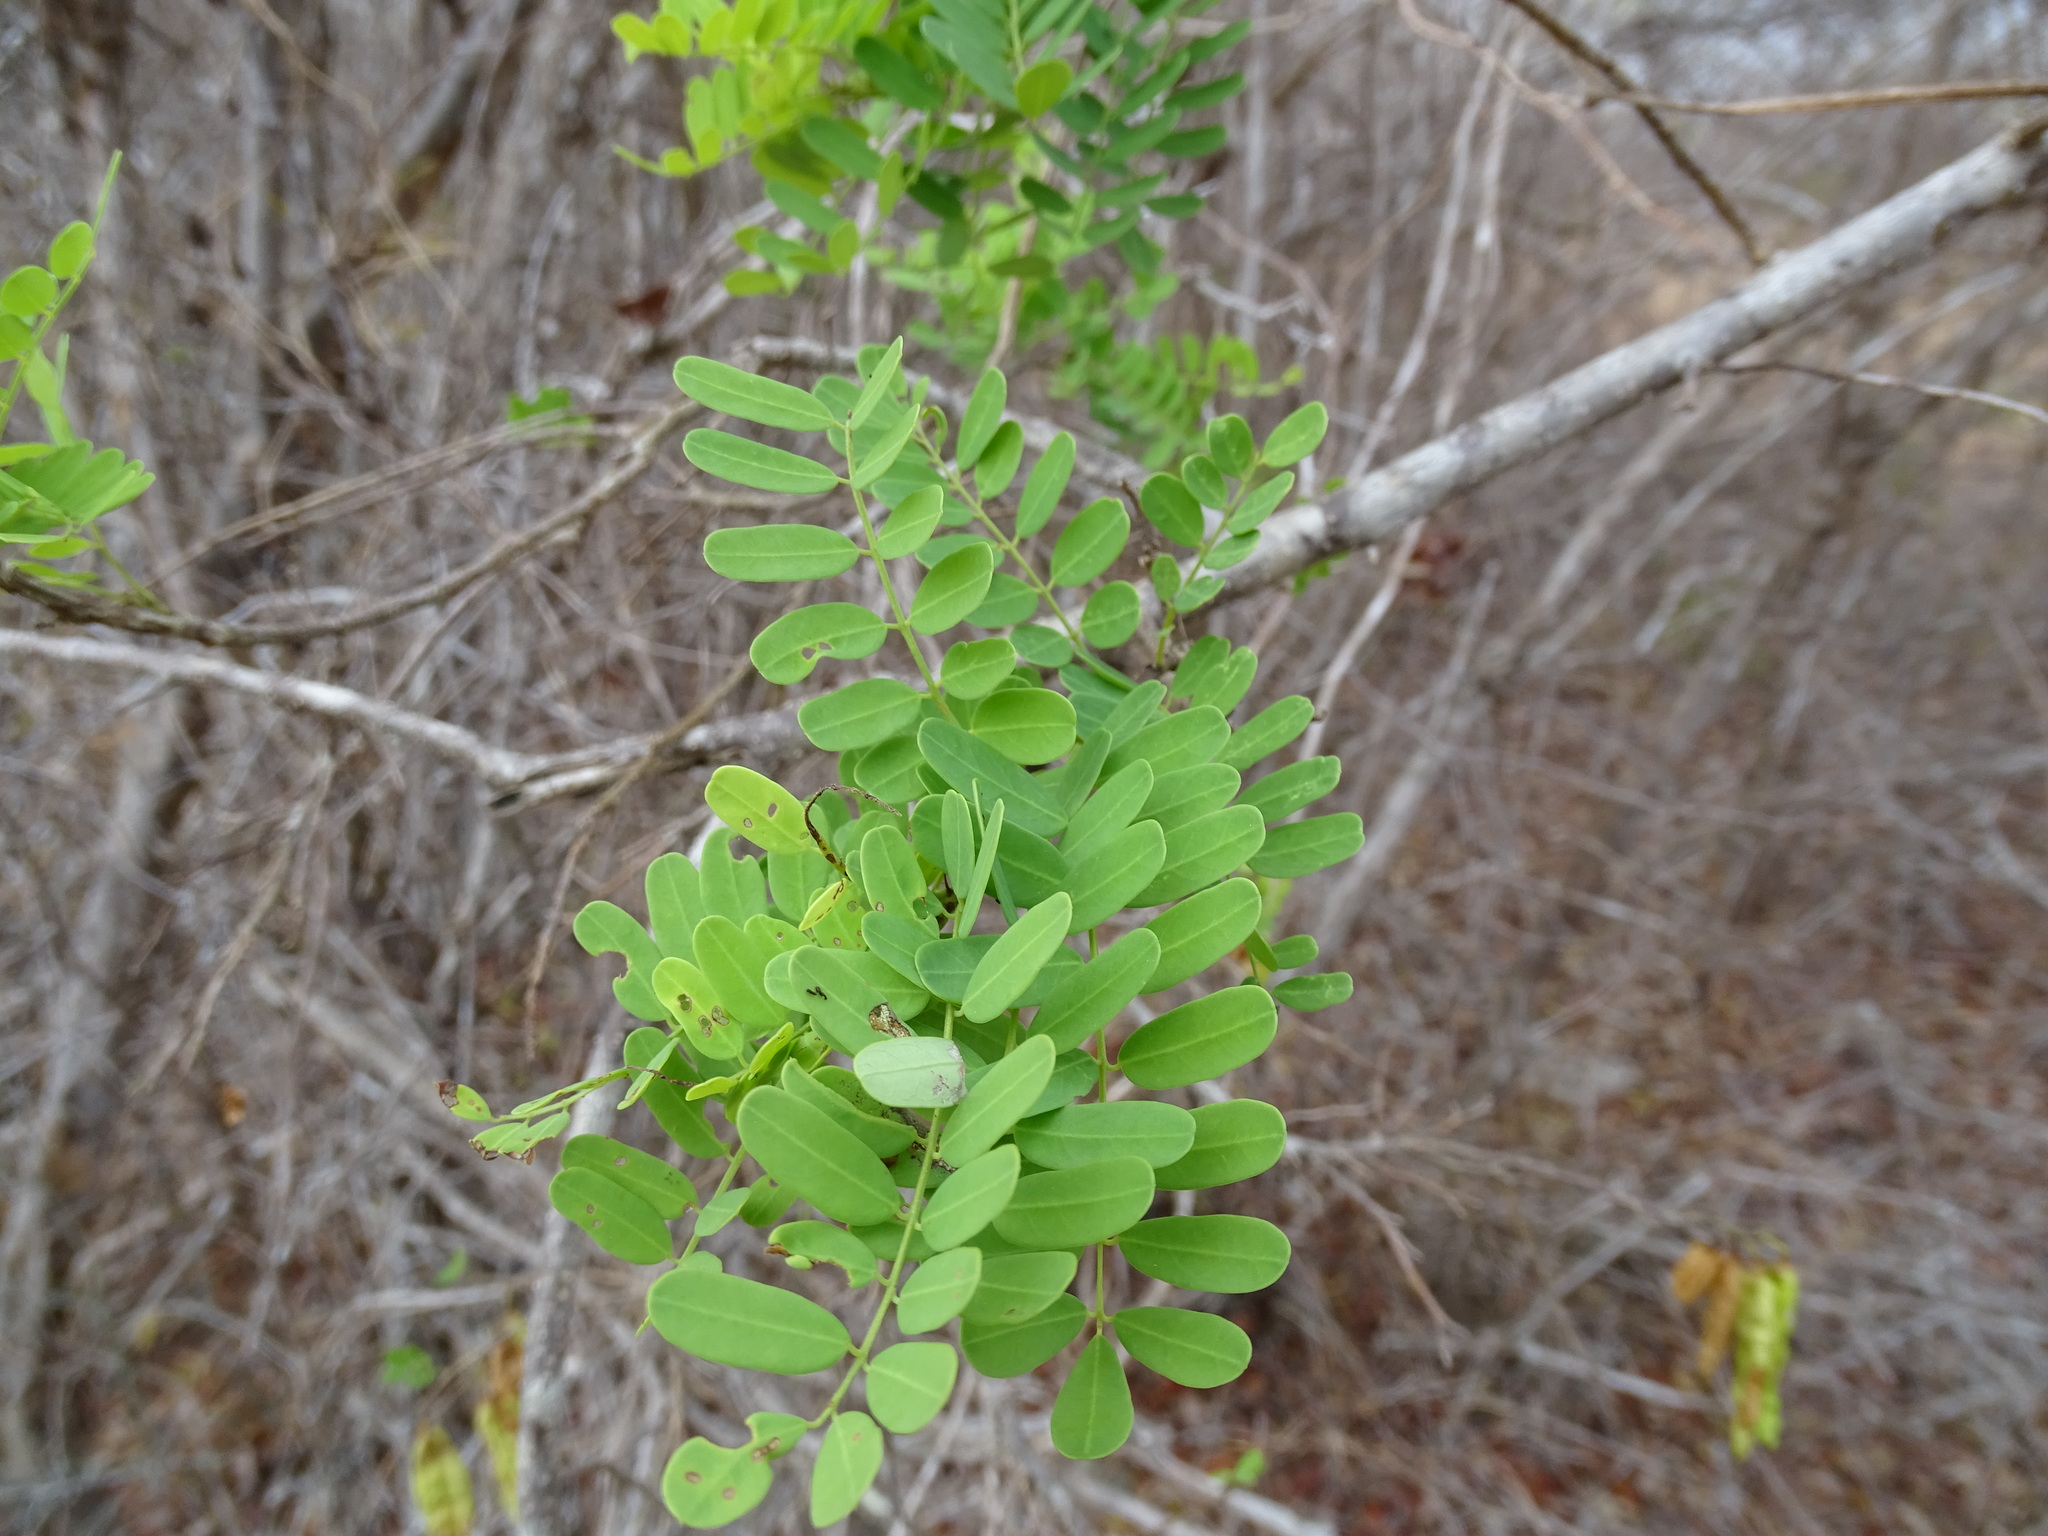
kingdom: Plantae
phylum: Tracheophyta
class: Magnoliopsida
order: Fabales
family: Fabaceae
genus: Diphysa
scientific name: Diphysa americana
